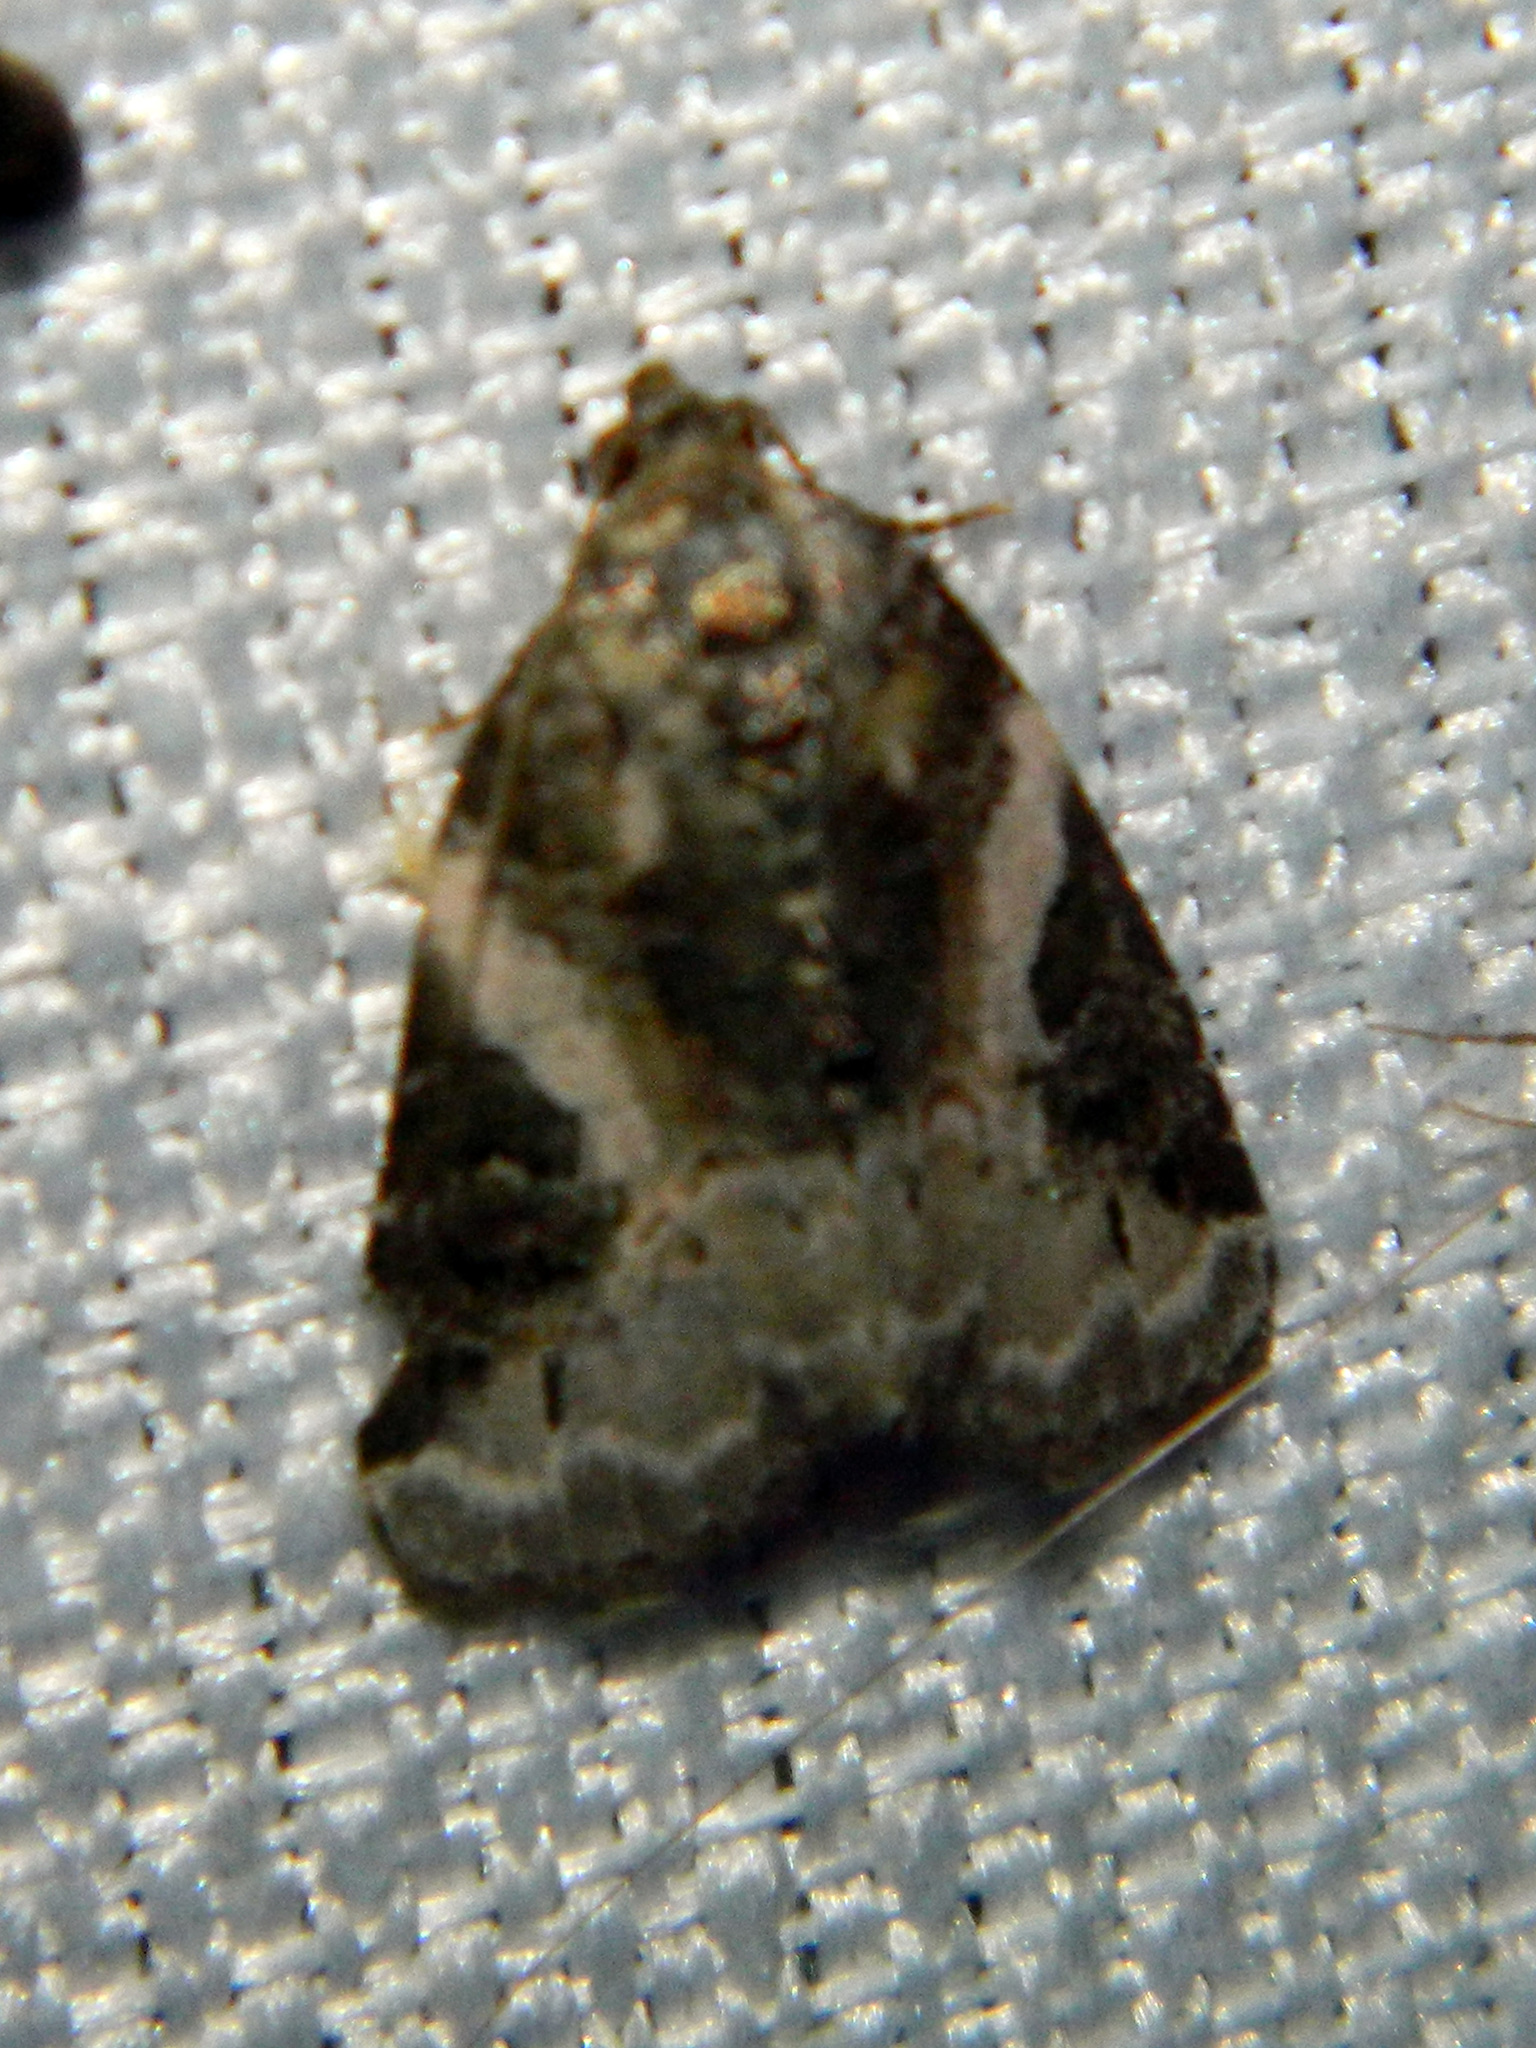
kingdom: Animalia
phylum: Arthropoda
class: Insecta
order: Lepidoptera
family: Noctuidae
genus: Pseudeustrotia
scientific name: Pseudeustrotia carneola
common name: Pink-barred lithacodia moth
